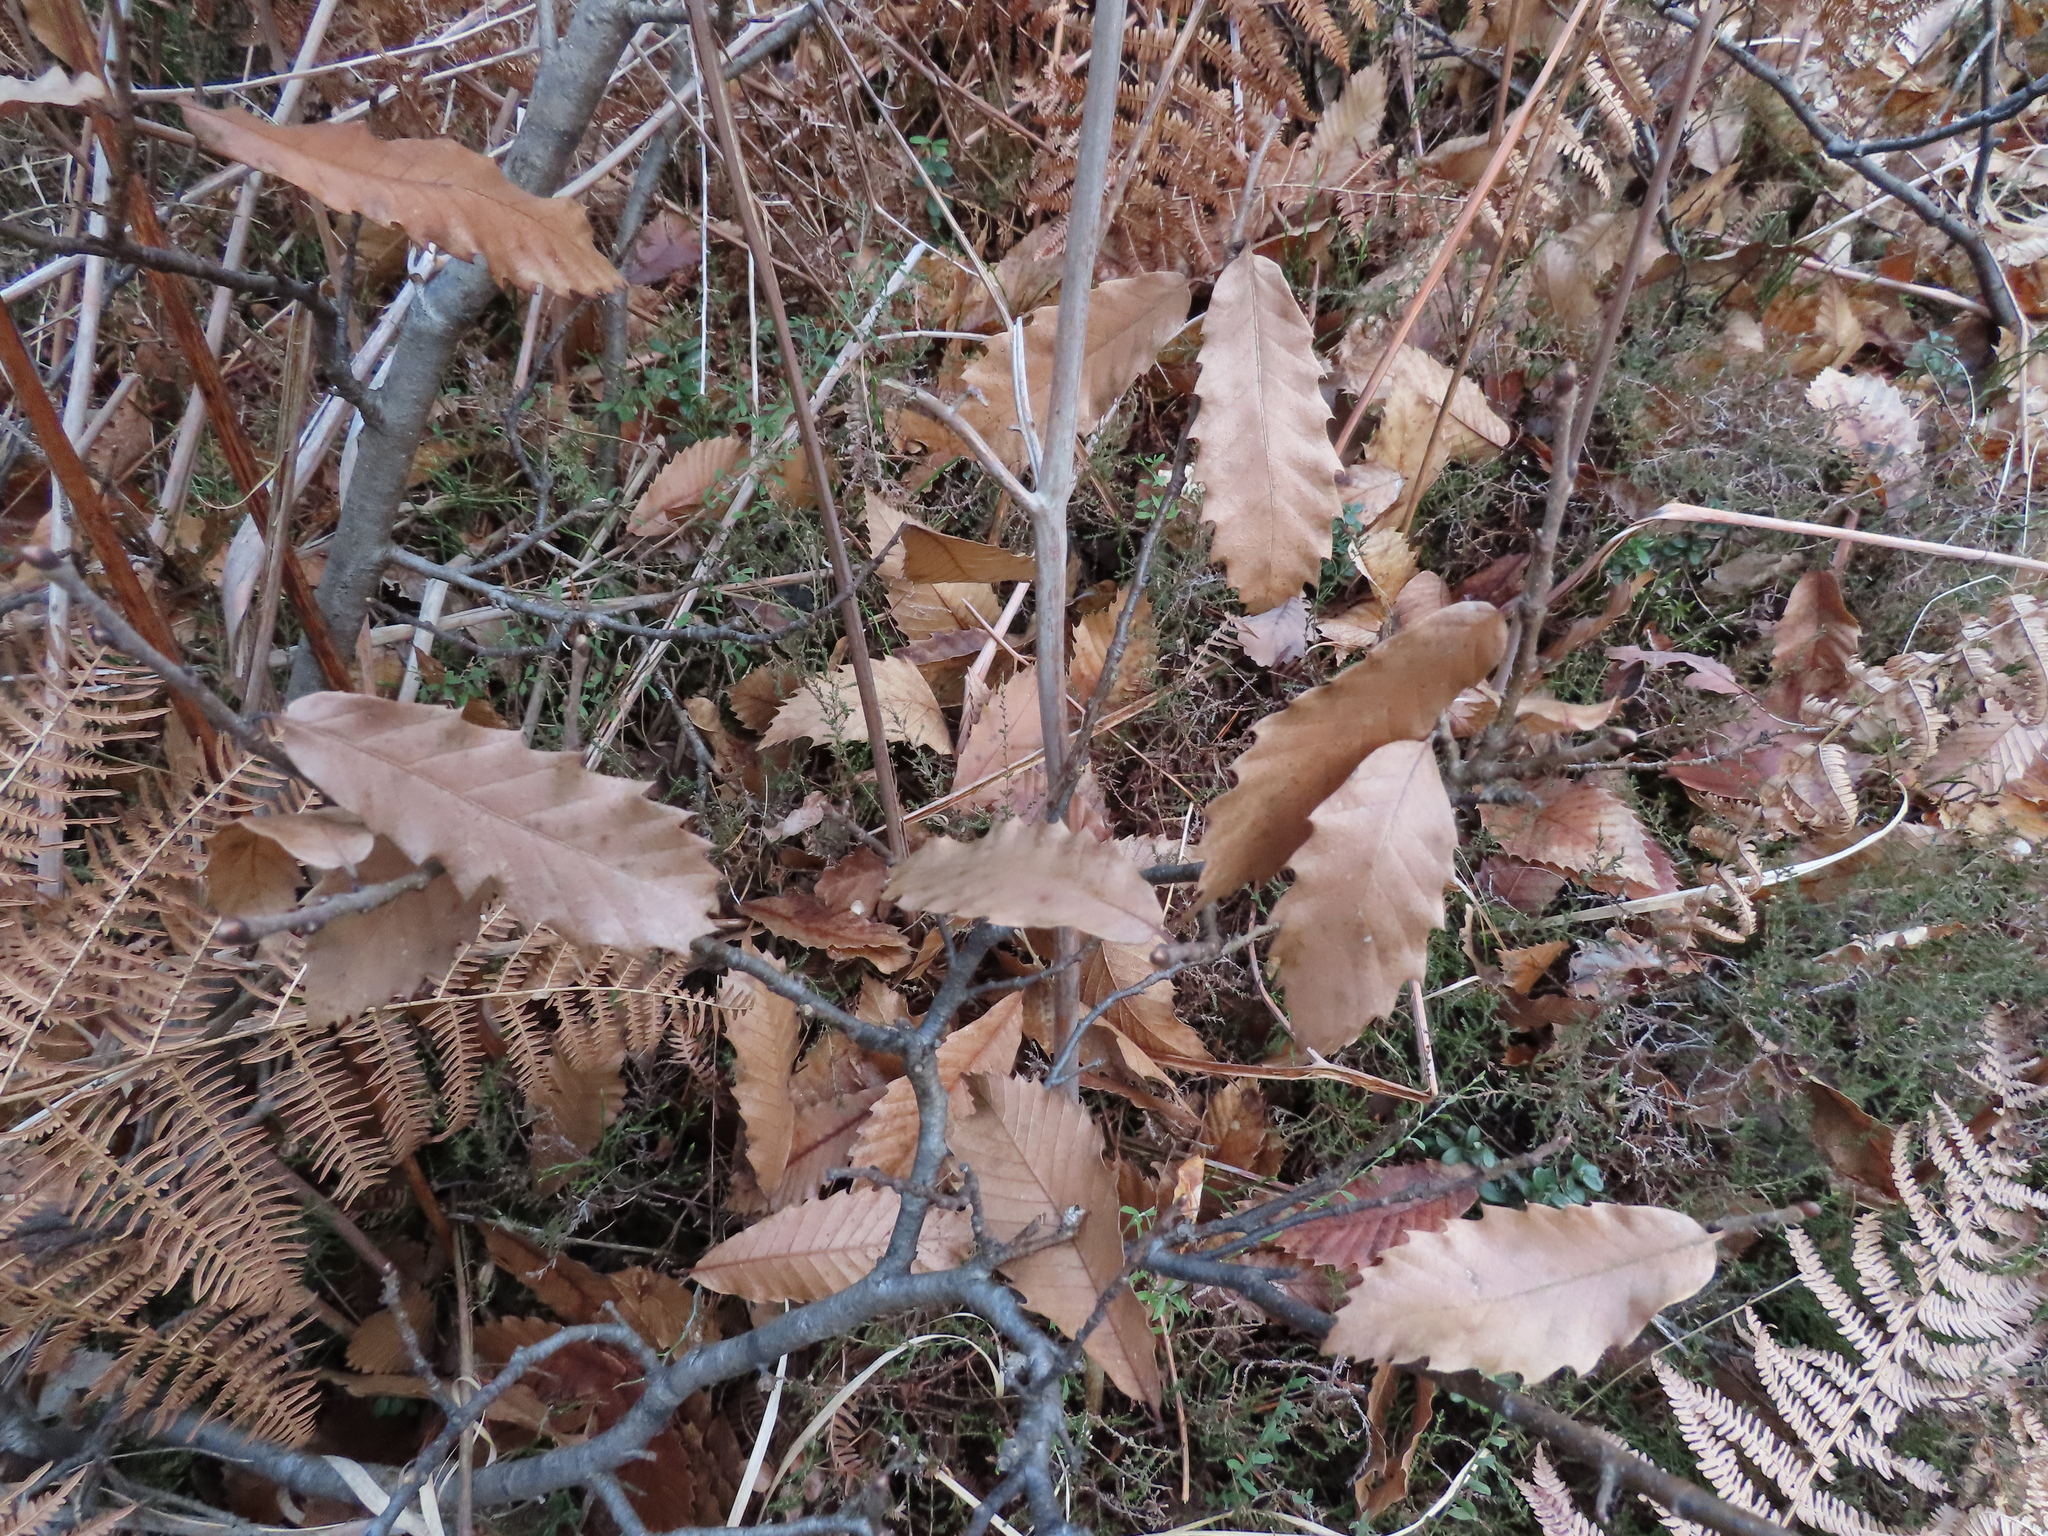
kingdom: Plantae
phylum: Tracheophyta
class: Magnoliopsida
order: Fagales
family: Fagaceae
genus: Quercus
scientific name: Quercus cerris
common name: Turkey oak
